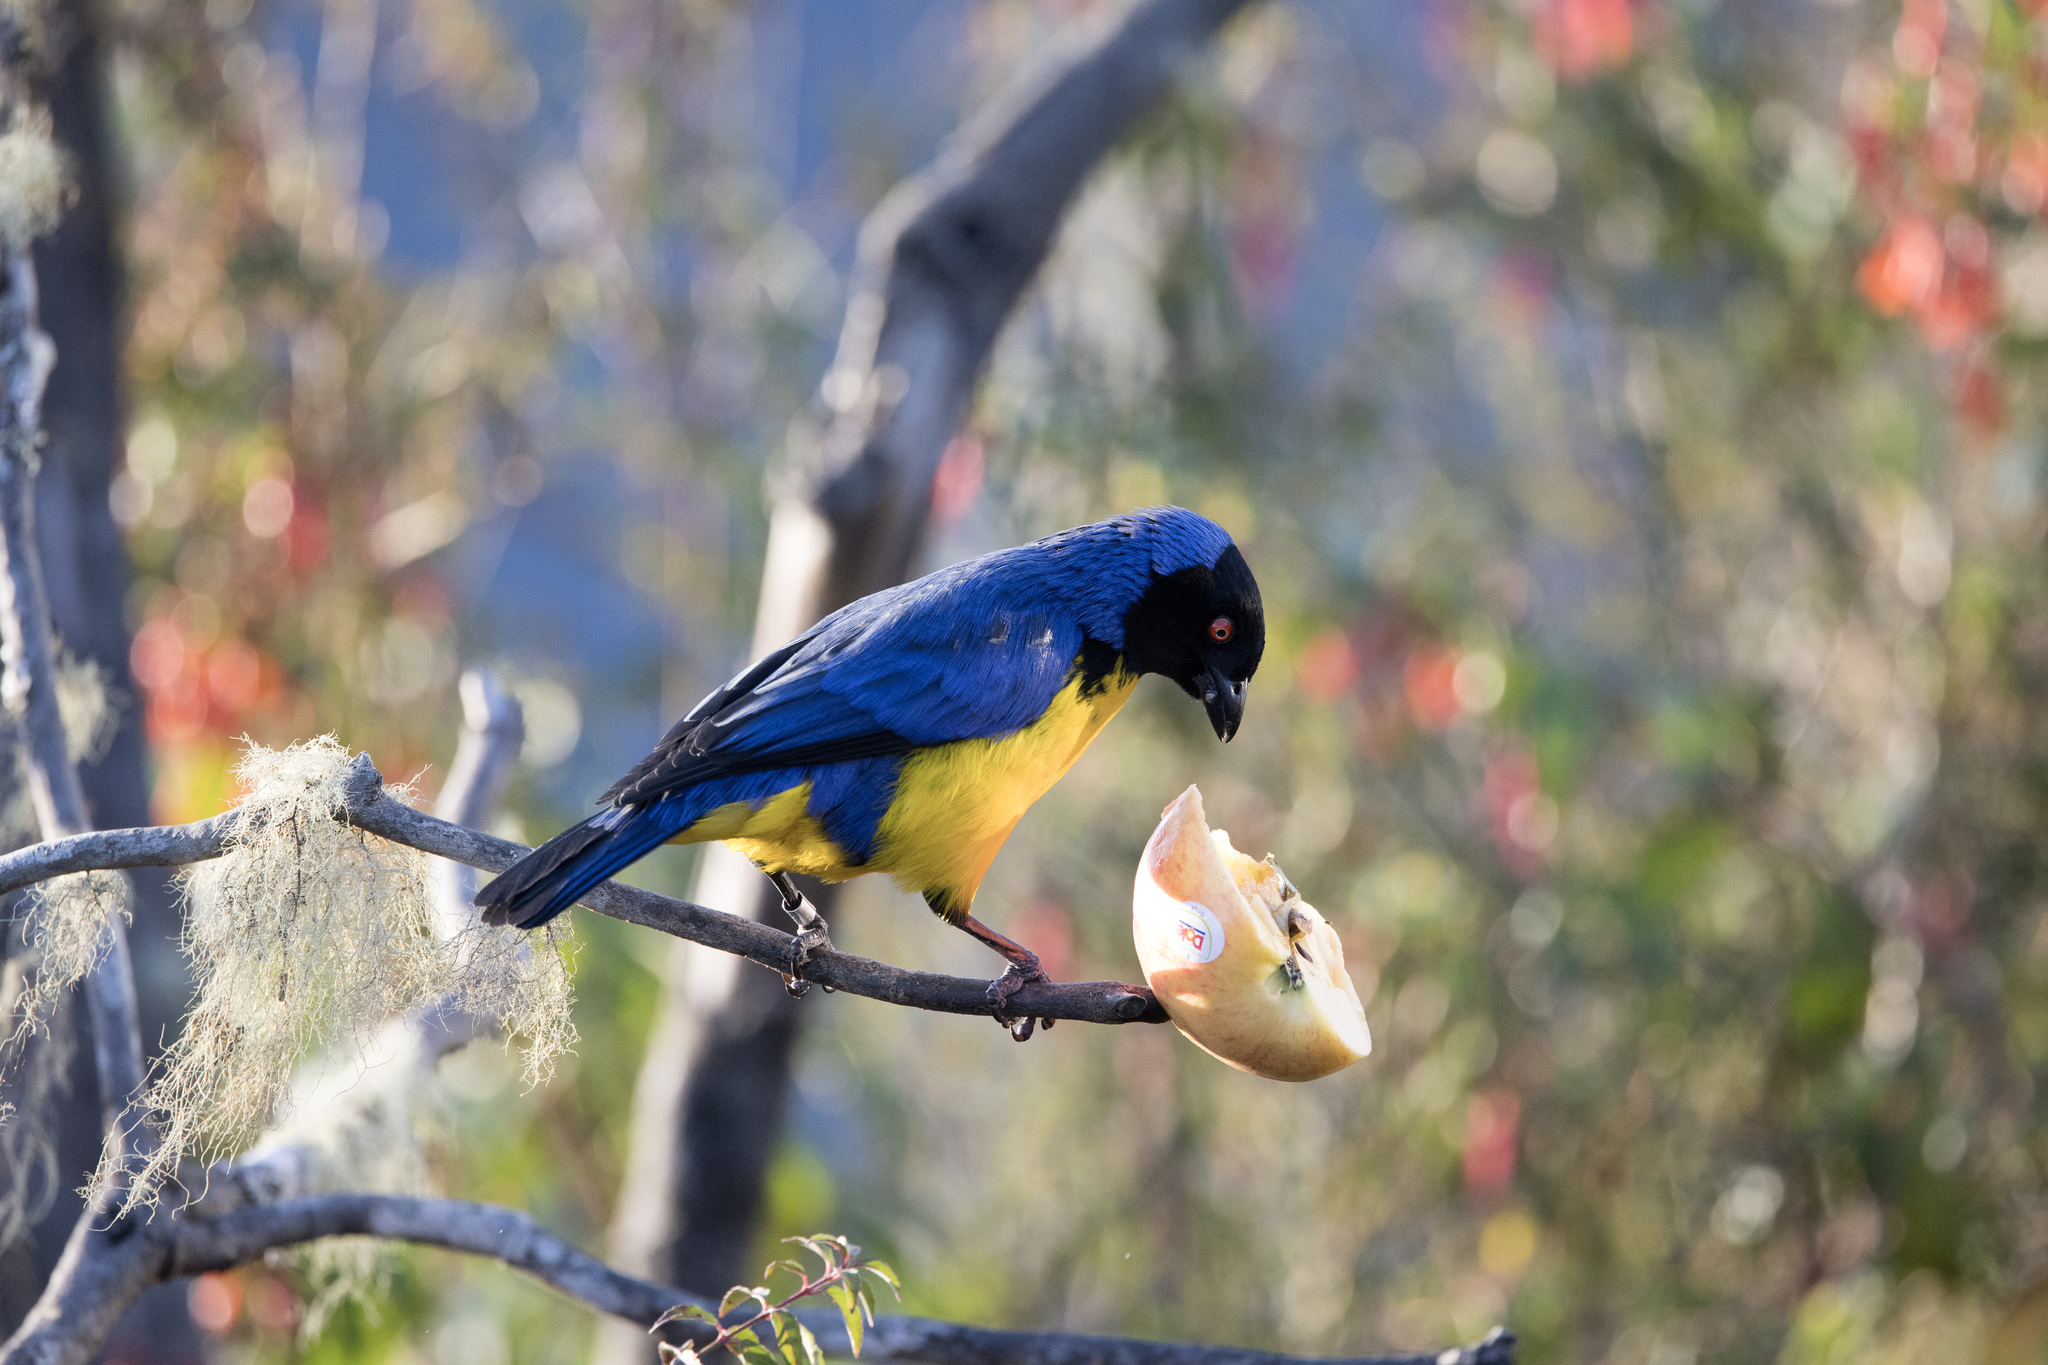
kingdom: Animalia
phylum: Chordata
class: Aves
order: Passeriformes
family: Thraupidae
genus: Buthraupis
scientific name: Buthraupis montana
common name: Hooded mountain tanager
